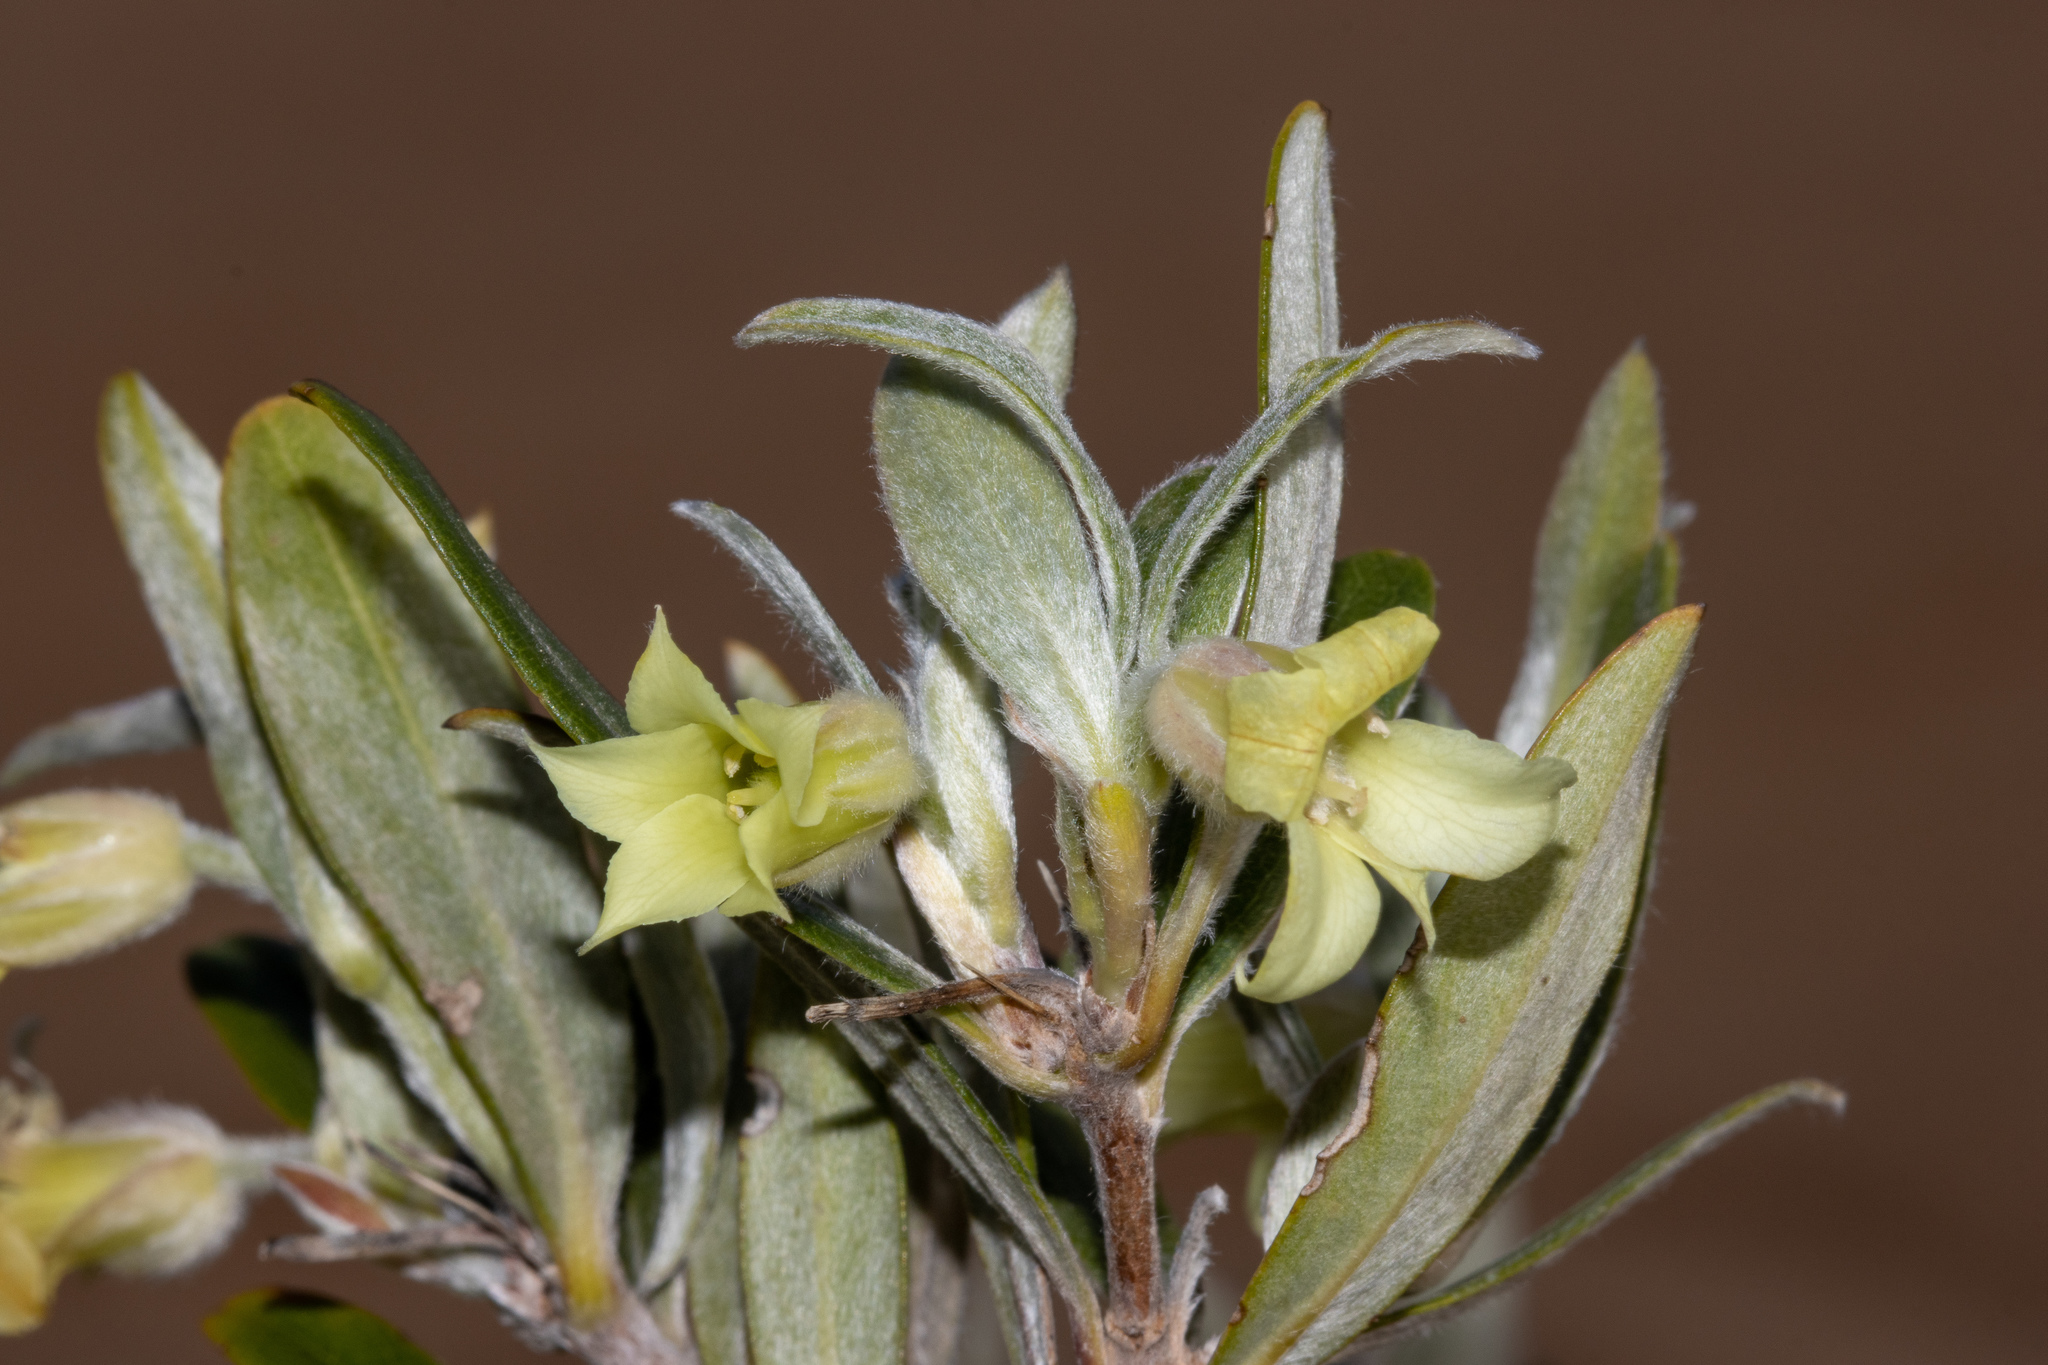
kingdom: Plantae
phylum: Tracheophyta
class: Magnoliopsida
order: Apiales
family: Pittosporaceae
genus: Billardiera
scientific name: Billardiera sericophora
